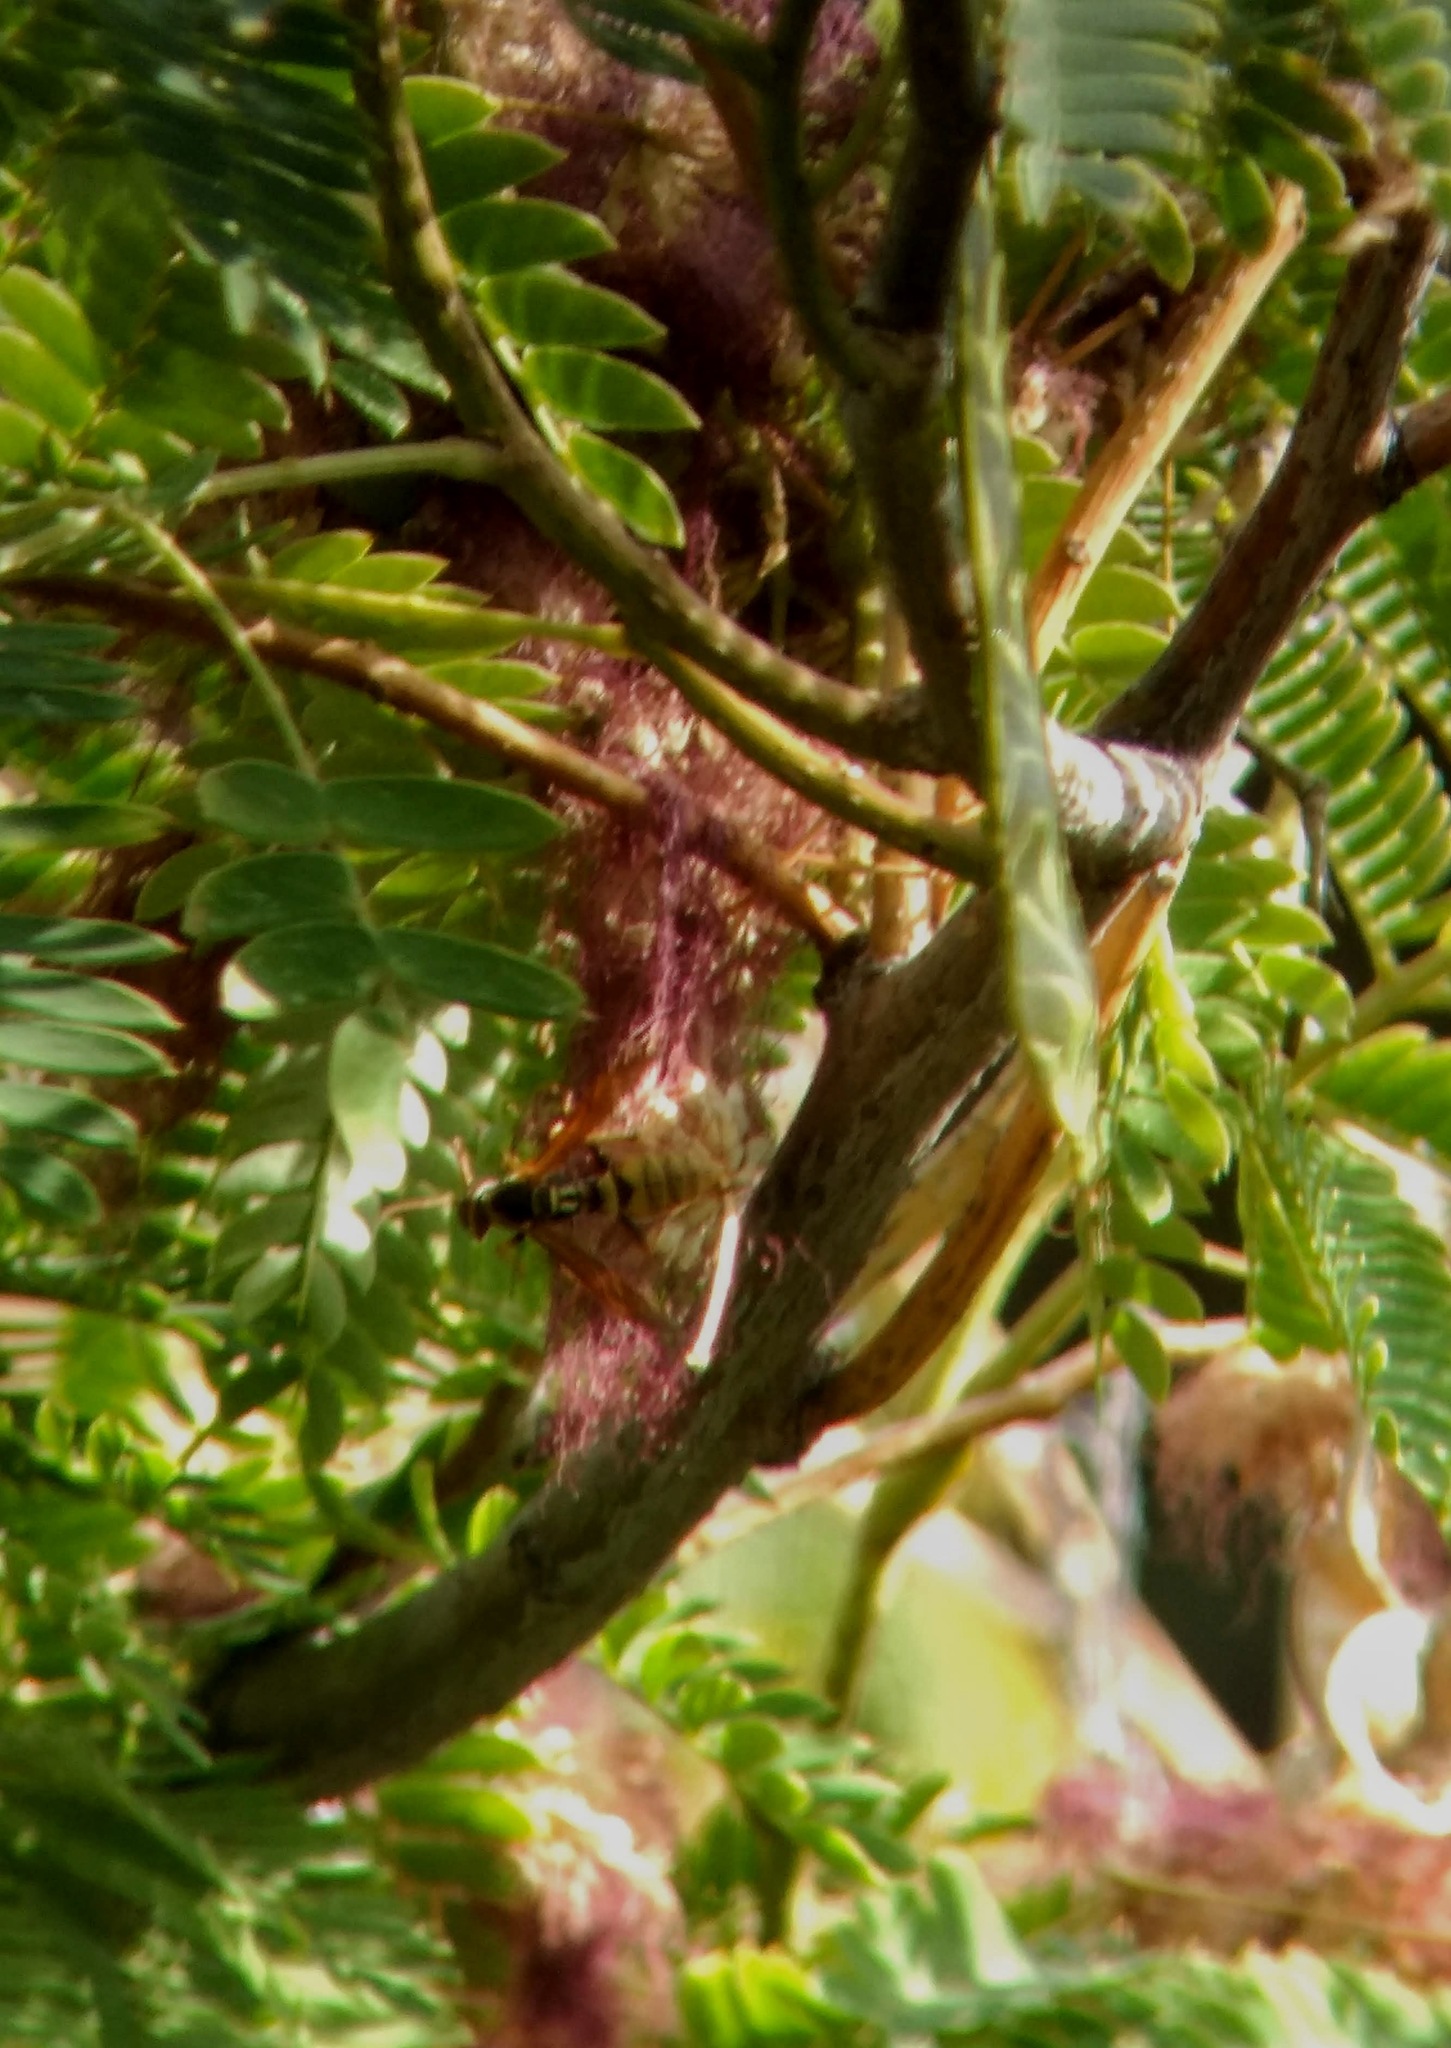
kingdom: Animalia
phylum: Arthropoda
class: Insecta
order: Hymenoptera
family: Eumenidae
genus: Polistes
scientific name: Polistes aurifer
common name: Paper wasp
